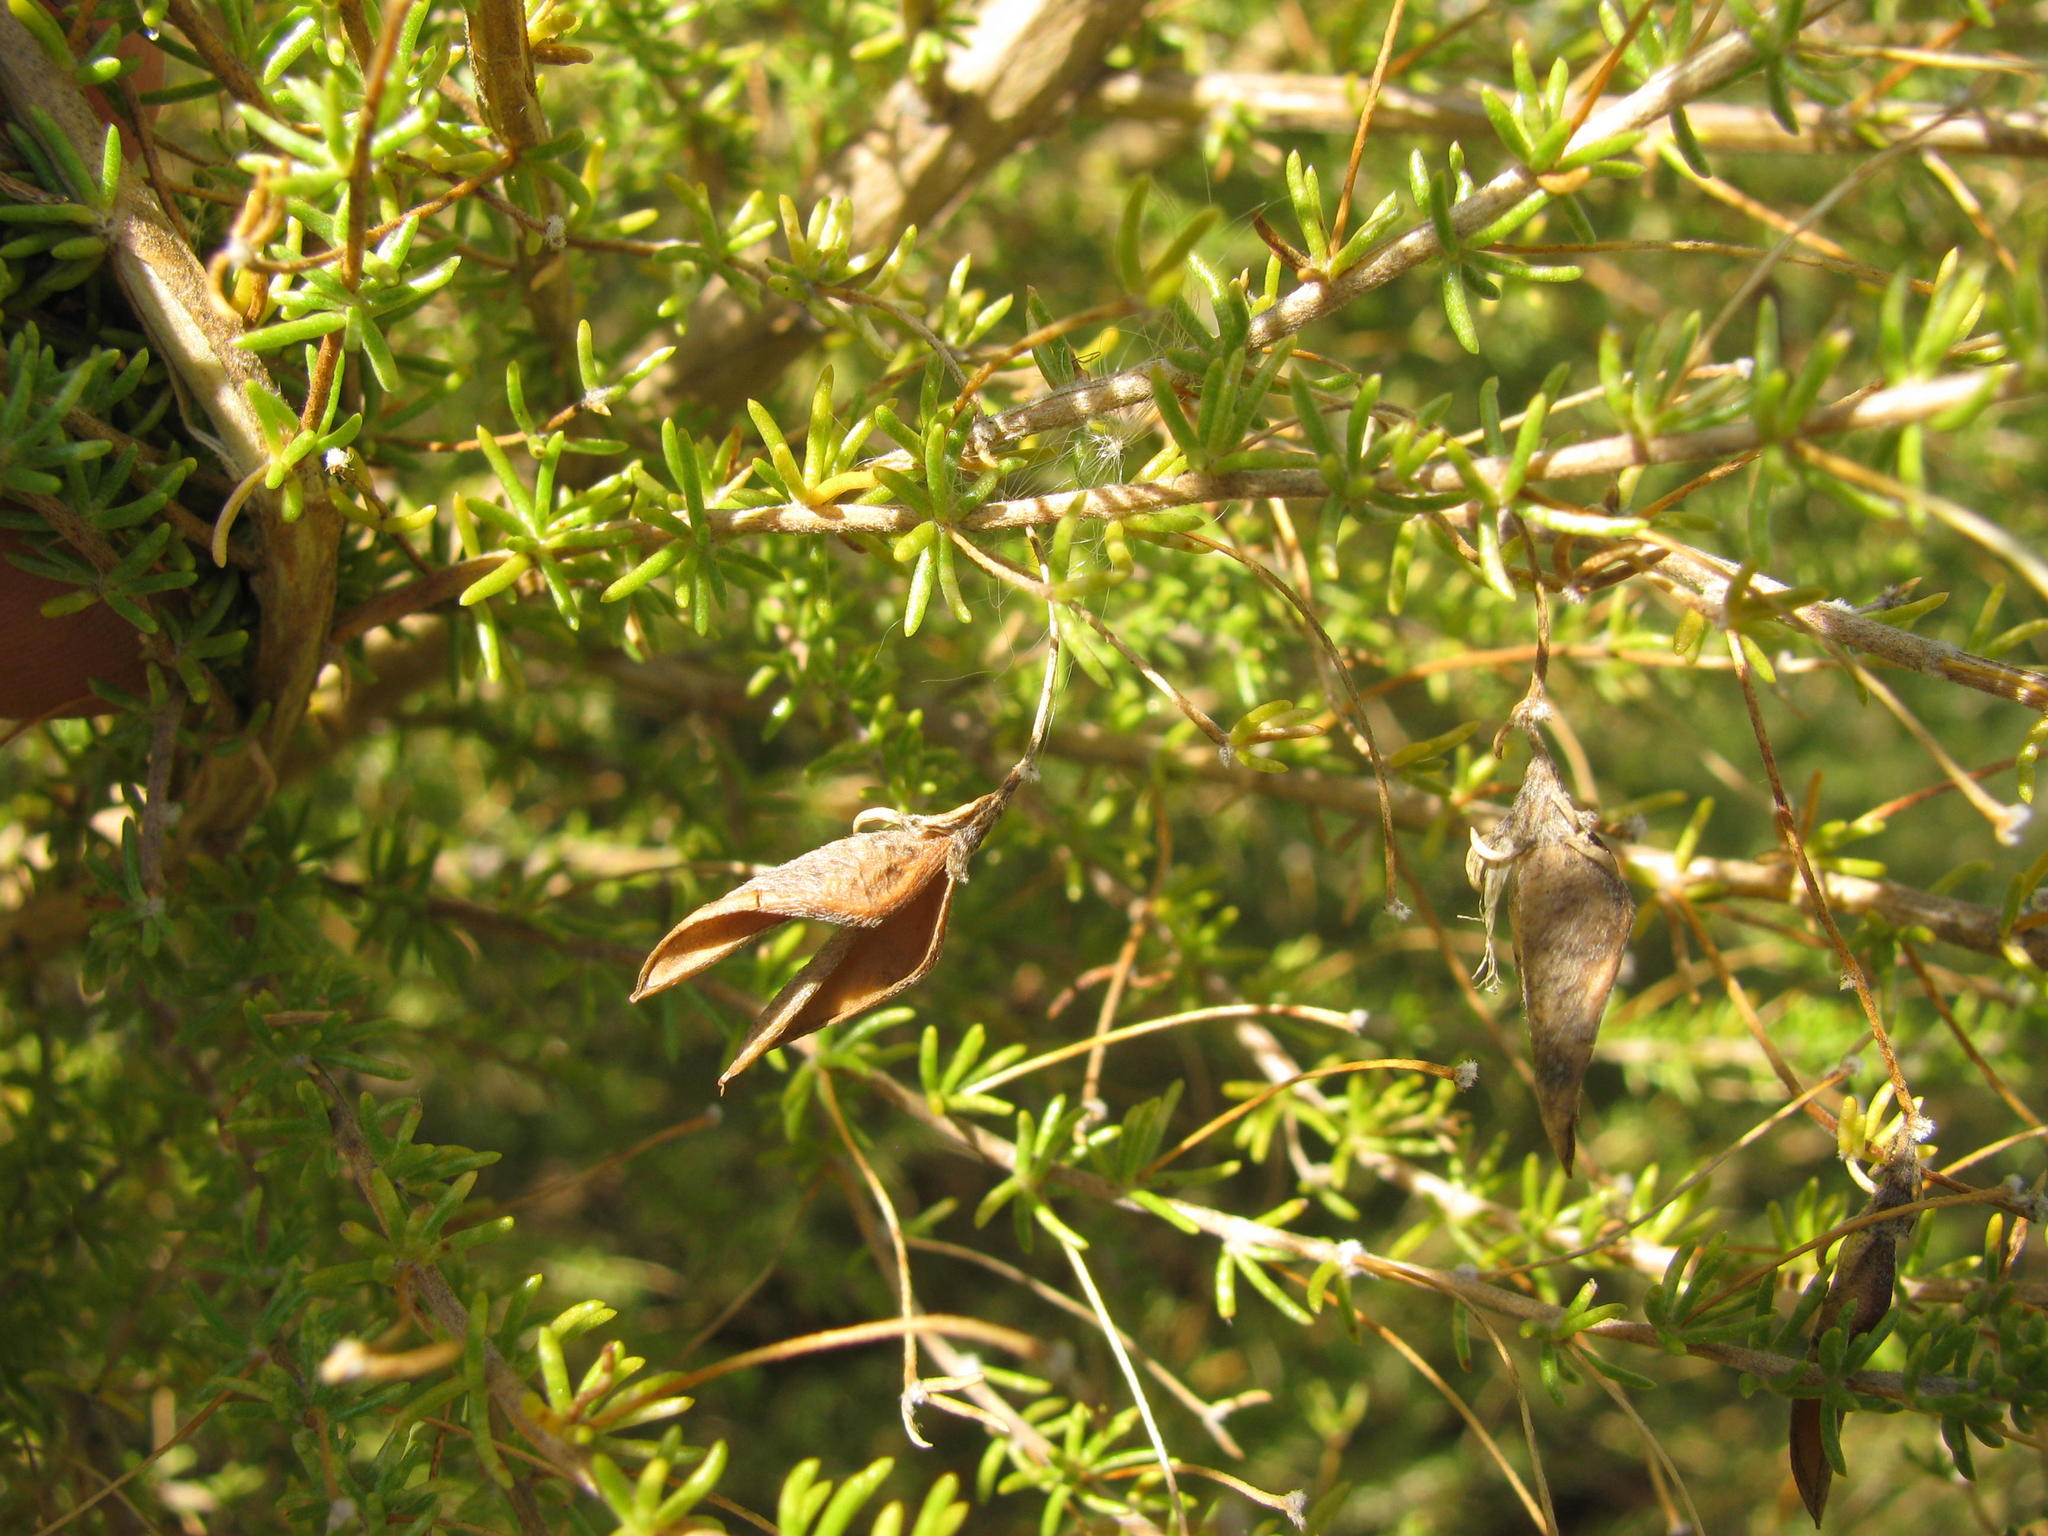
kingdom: Plantae
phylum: Tracheophyta
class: Magnoliopsida
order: Fabales
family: Fabaceae
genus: Aspalathus
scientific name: Aspalathus amoena
